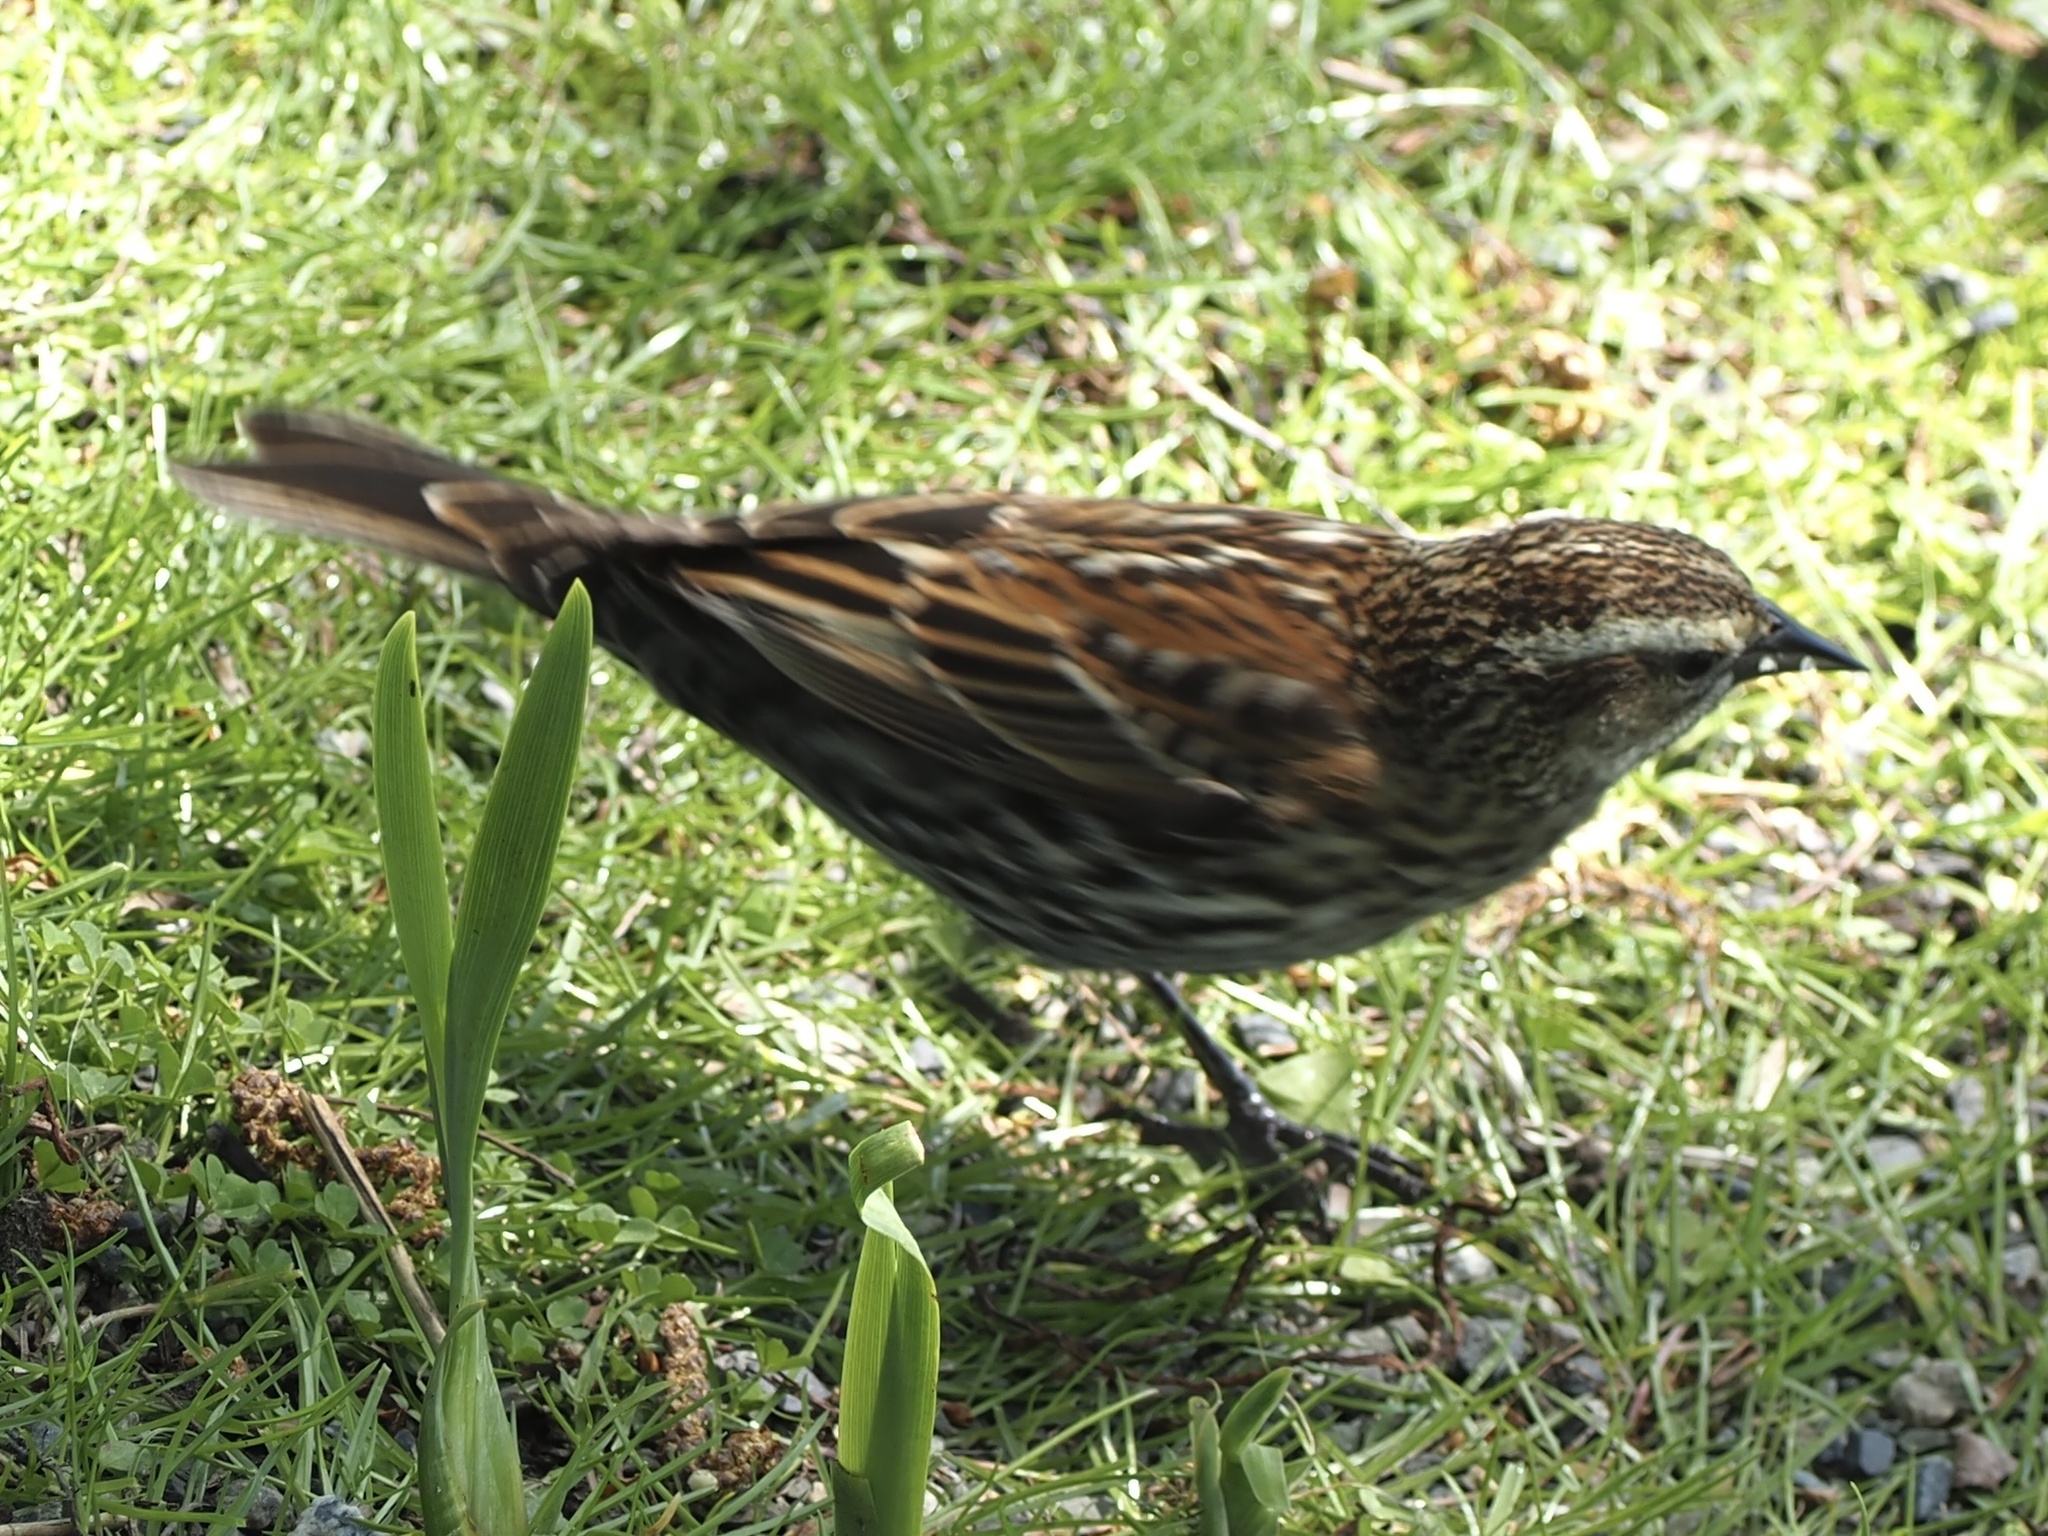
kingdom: Animalia
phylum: Chordata
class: Aves
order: Passeriformes
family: Icteridae
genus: Agelaius
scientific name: Agelaius phoeniceus
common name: Red-winged blackbird
